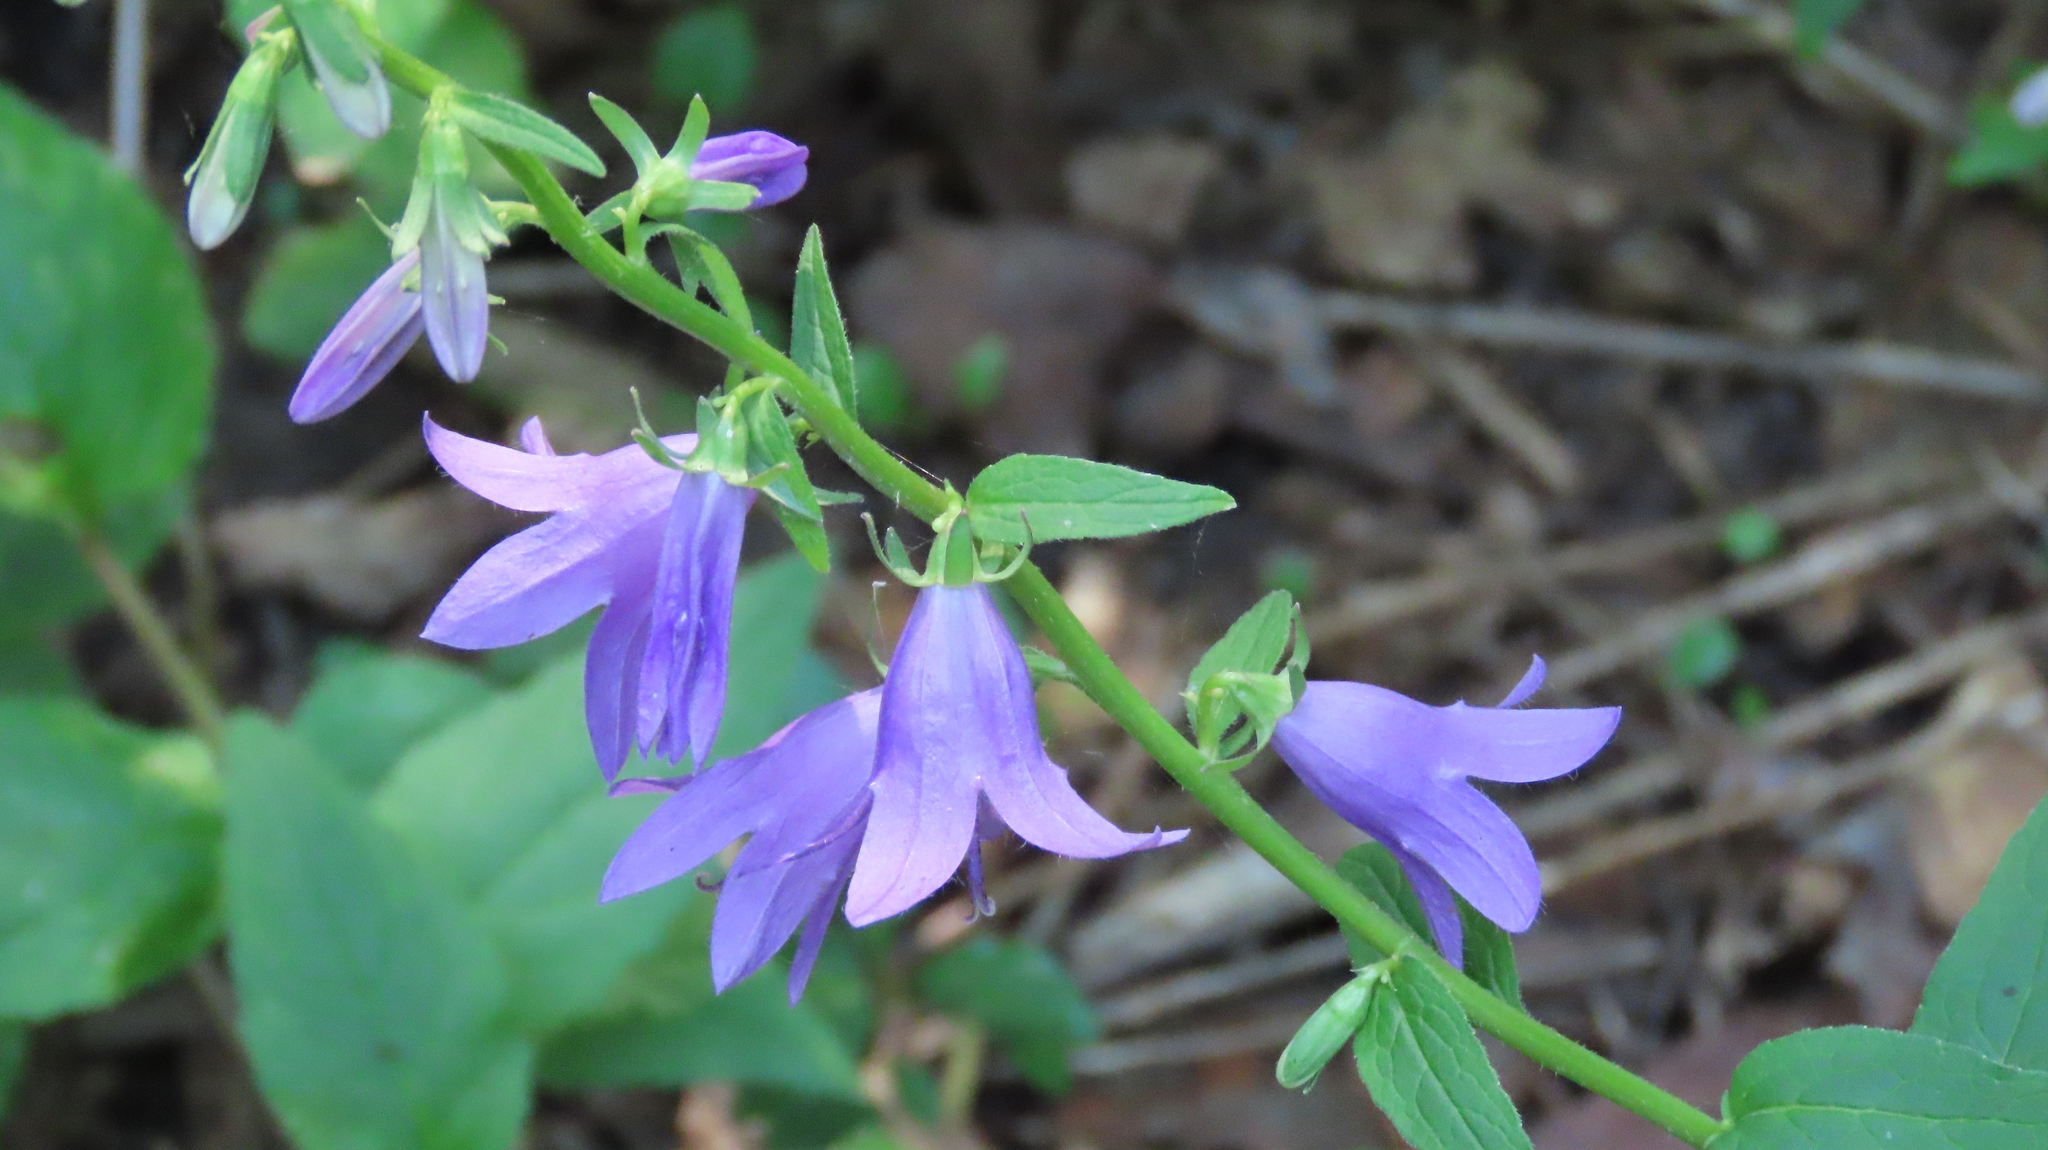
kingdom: Plantae
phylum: Tracheophyta
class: Magnoliopsida
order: Asterales
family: Campanulaceae
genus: Campanula
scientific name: Campanula rapunculoides
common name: Creeping bellflower
